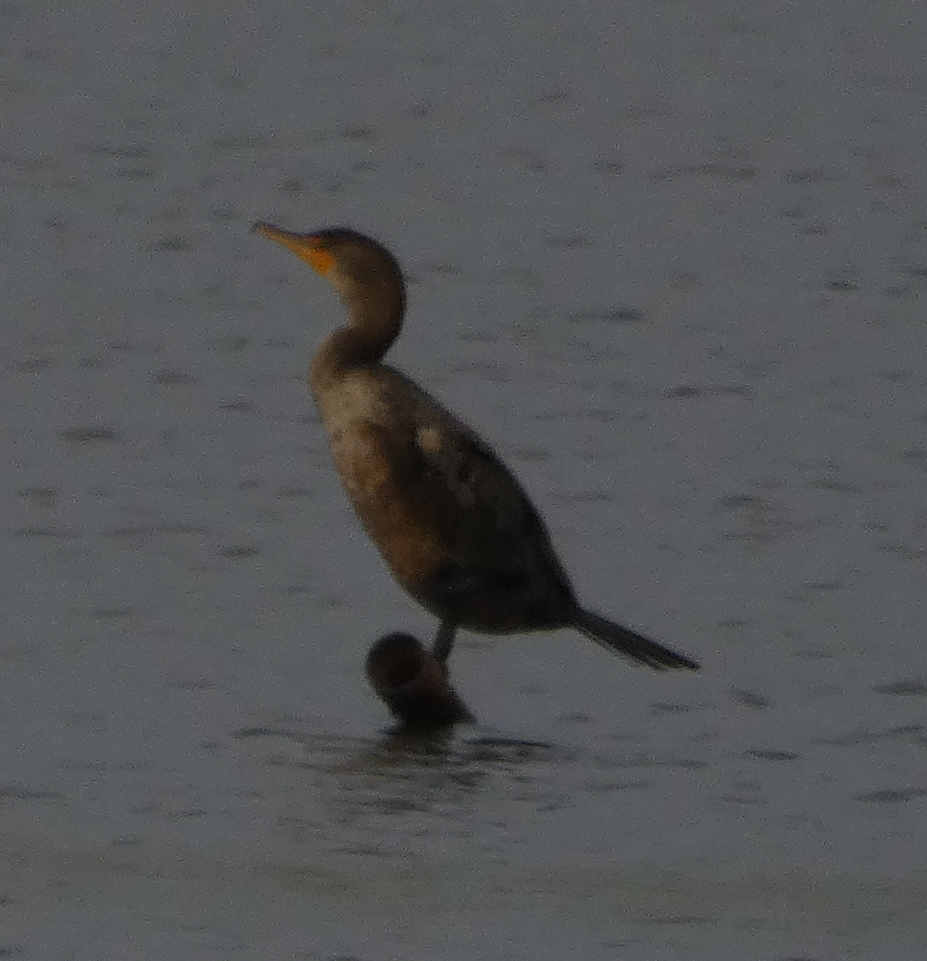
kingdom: Animalia
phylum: Chordata
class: Aves
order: Suliformes
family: Phalacrocoracidae
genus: Phalacrocorax
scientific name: Phalacrocorax auritus
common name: Double-crested cormorant
